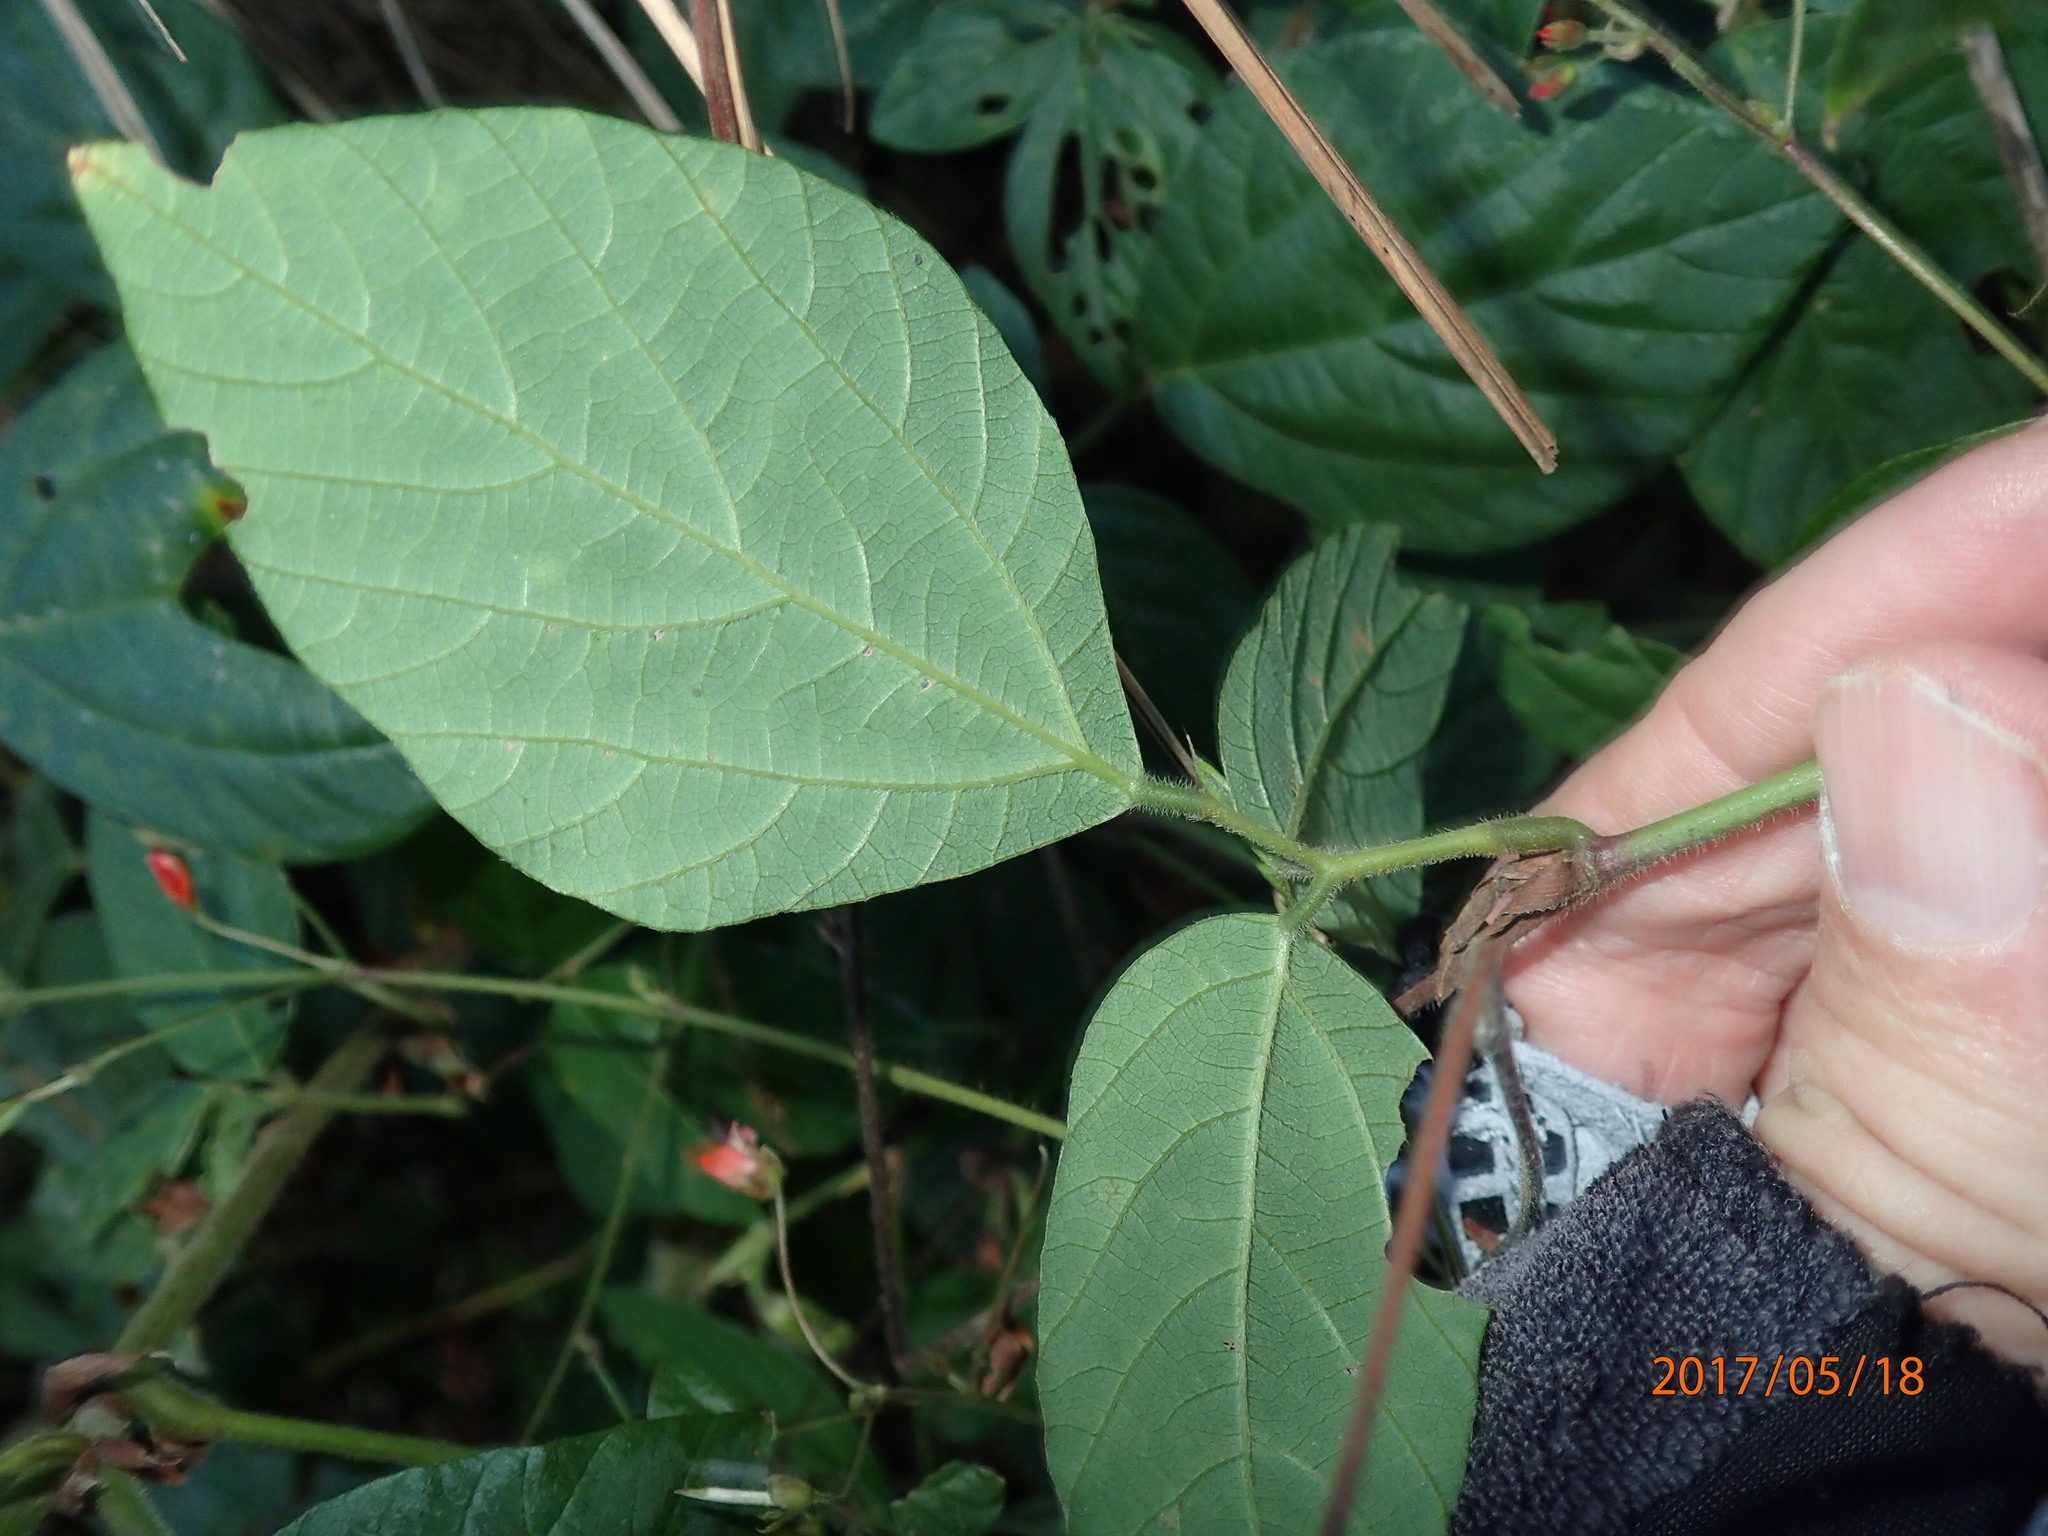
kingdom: Plantae
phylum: Tracheophyta
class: Magnoliopsida
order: Fabales
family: Fabaceae
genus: Hylodesmum
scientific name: Hylodesmum repandum
